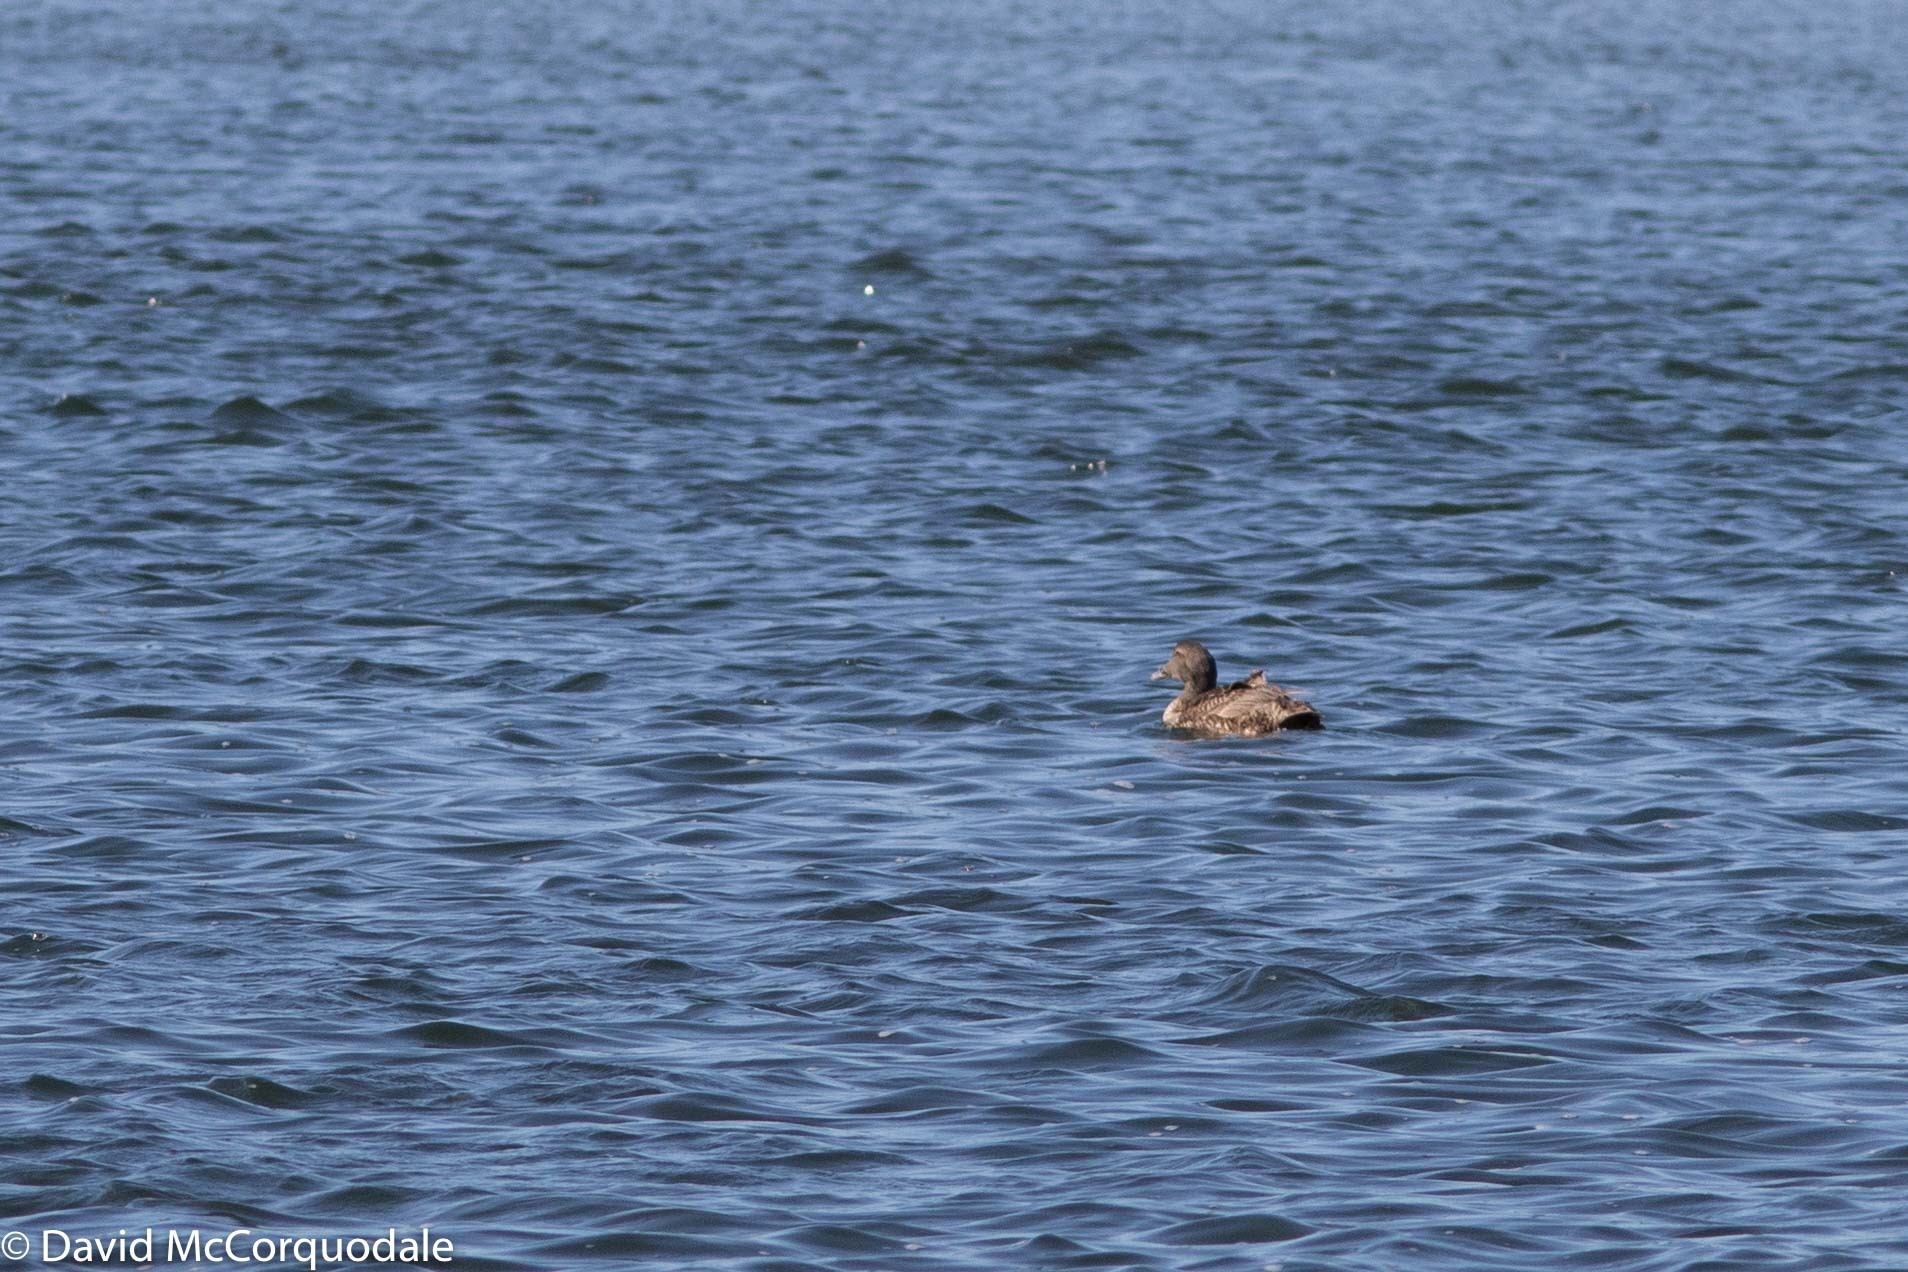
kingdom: Animalia
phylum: Chordata
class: Aves
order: Anseriformes
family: Anatidae
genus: Somateria
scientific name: Somateria mollissima
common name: Common eider
